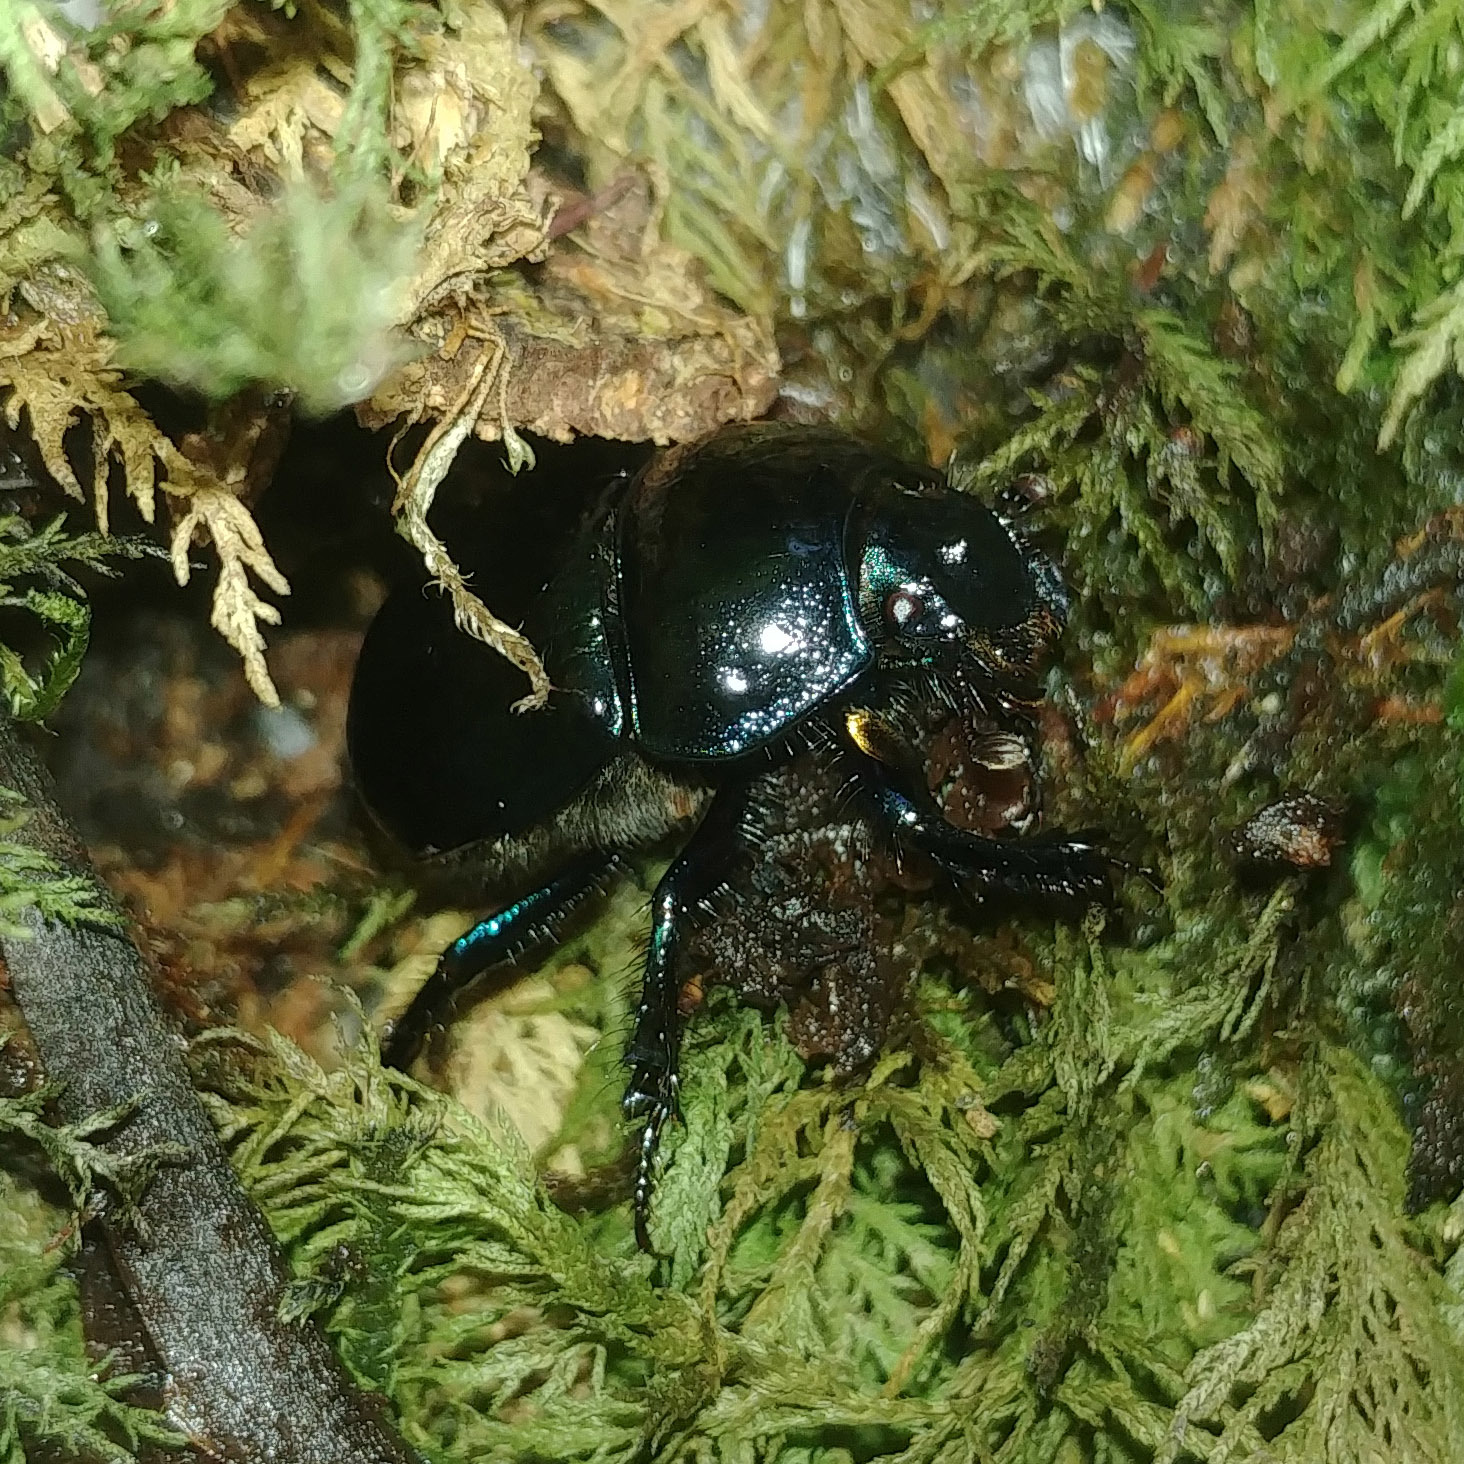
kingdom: Animalia
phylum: Arthropoda
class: Insecta
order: Coleoptera
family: Geotrupidae
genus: Anoplotrupes
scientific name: Anoplotrupes stercorosus
